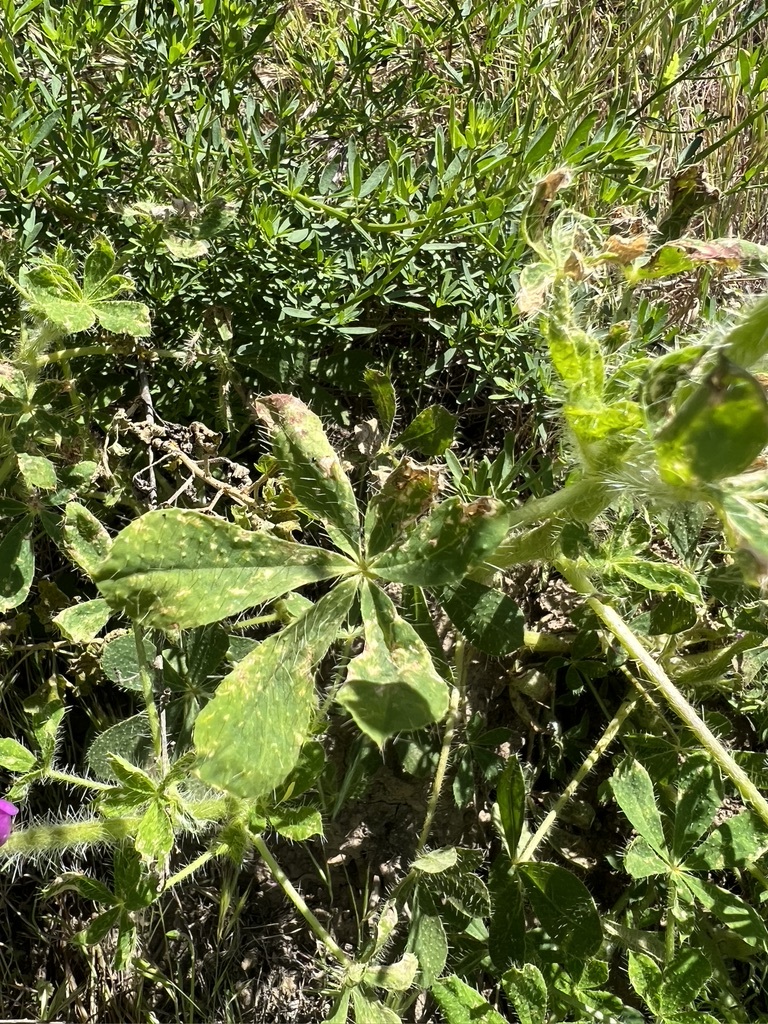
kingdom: Plantae
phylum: Tracheophyta
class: Magnoliopsida
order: Fabales
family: Fabaceae
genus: Lupinus
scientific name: Lupinus hirsutissimus
